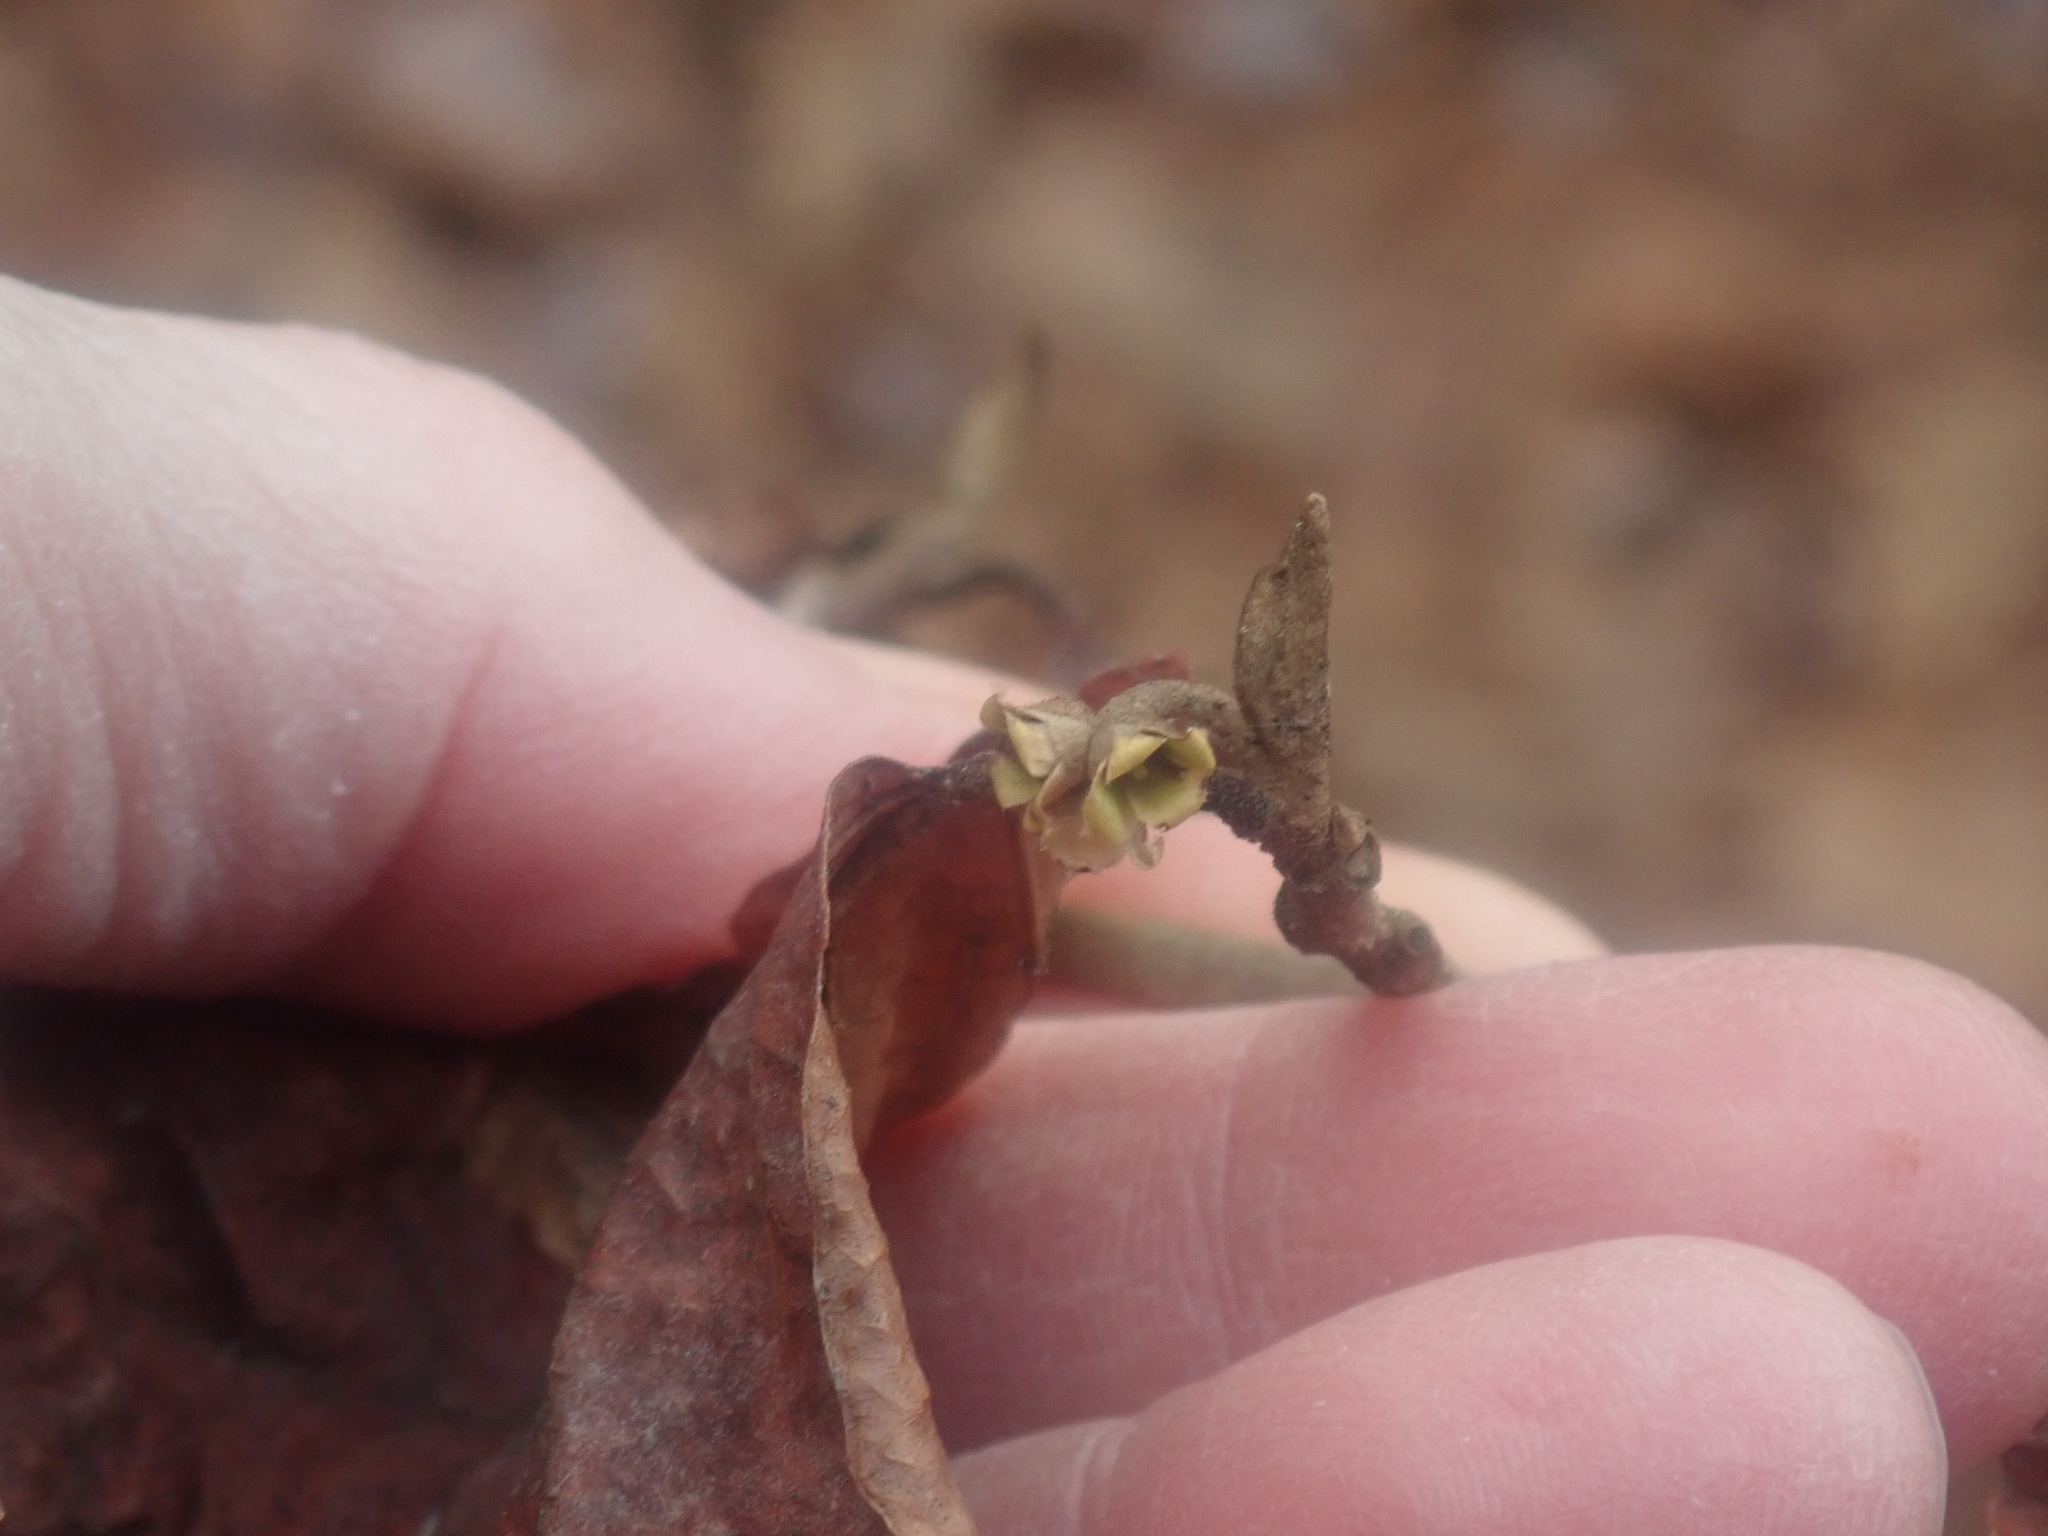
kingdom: Plantae
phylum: Tracheophyta
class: Magnoliopsida
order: Saxifragales
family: Hamamelidaceae
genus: Hamamelis
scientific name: Hamamelis virginiana
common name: Witch-hazel
